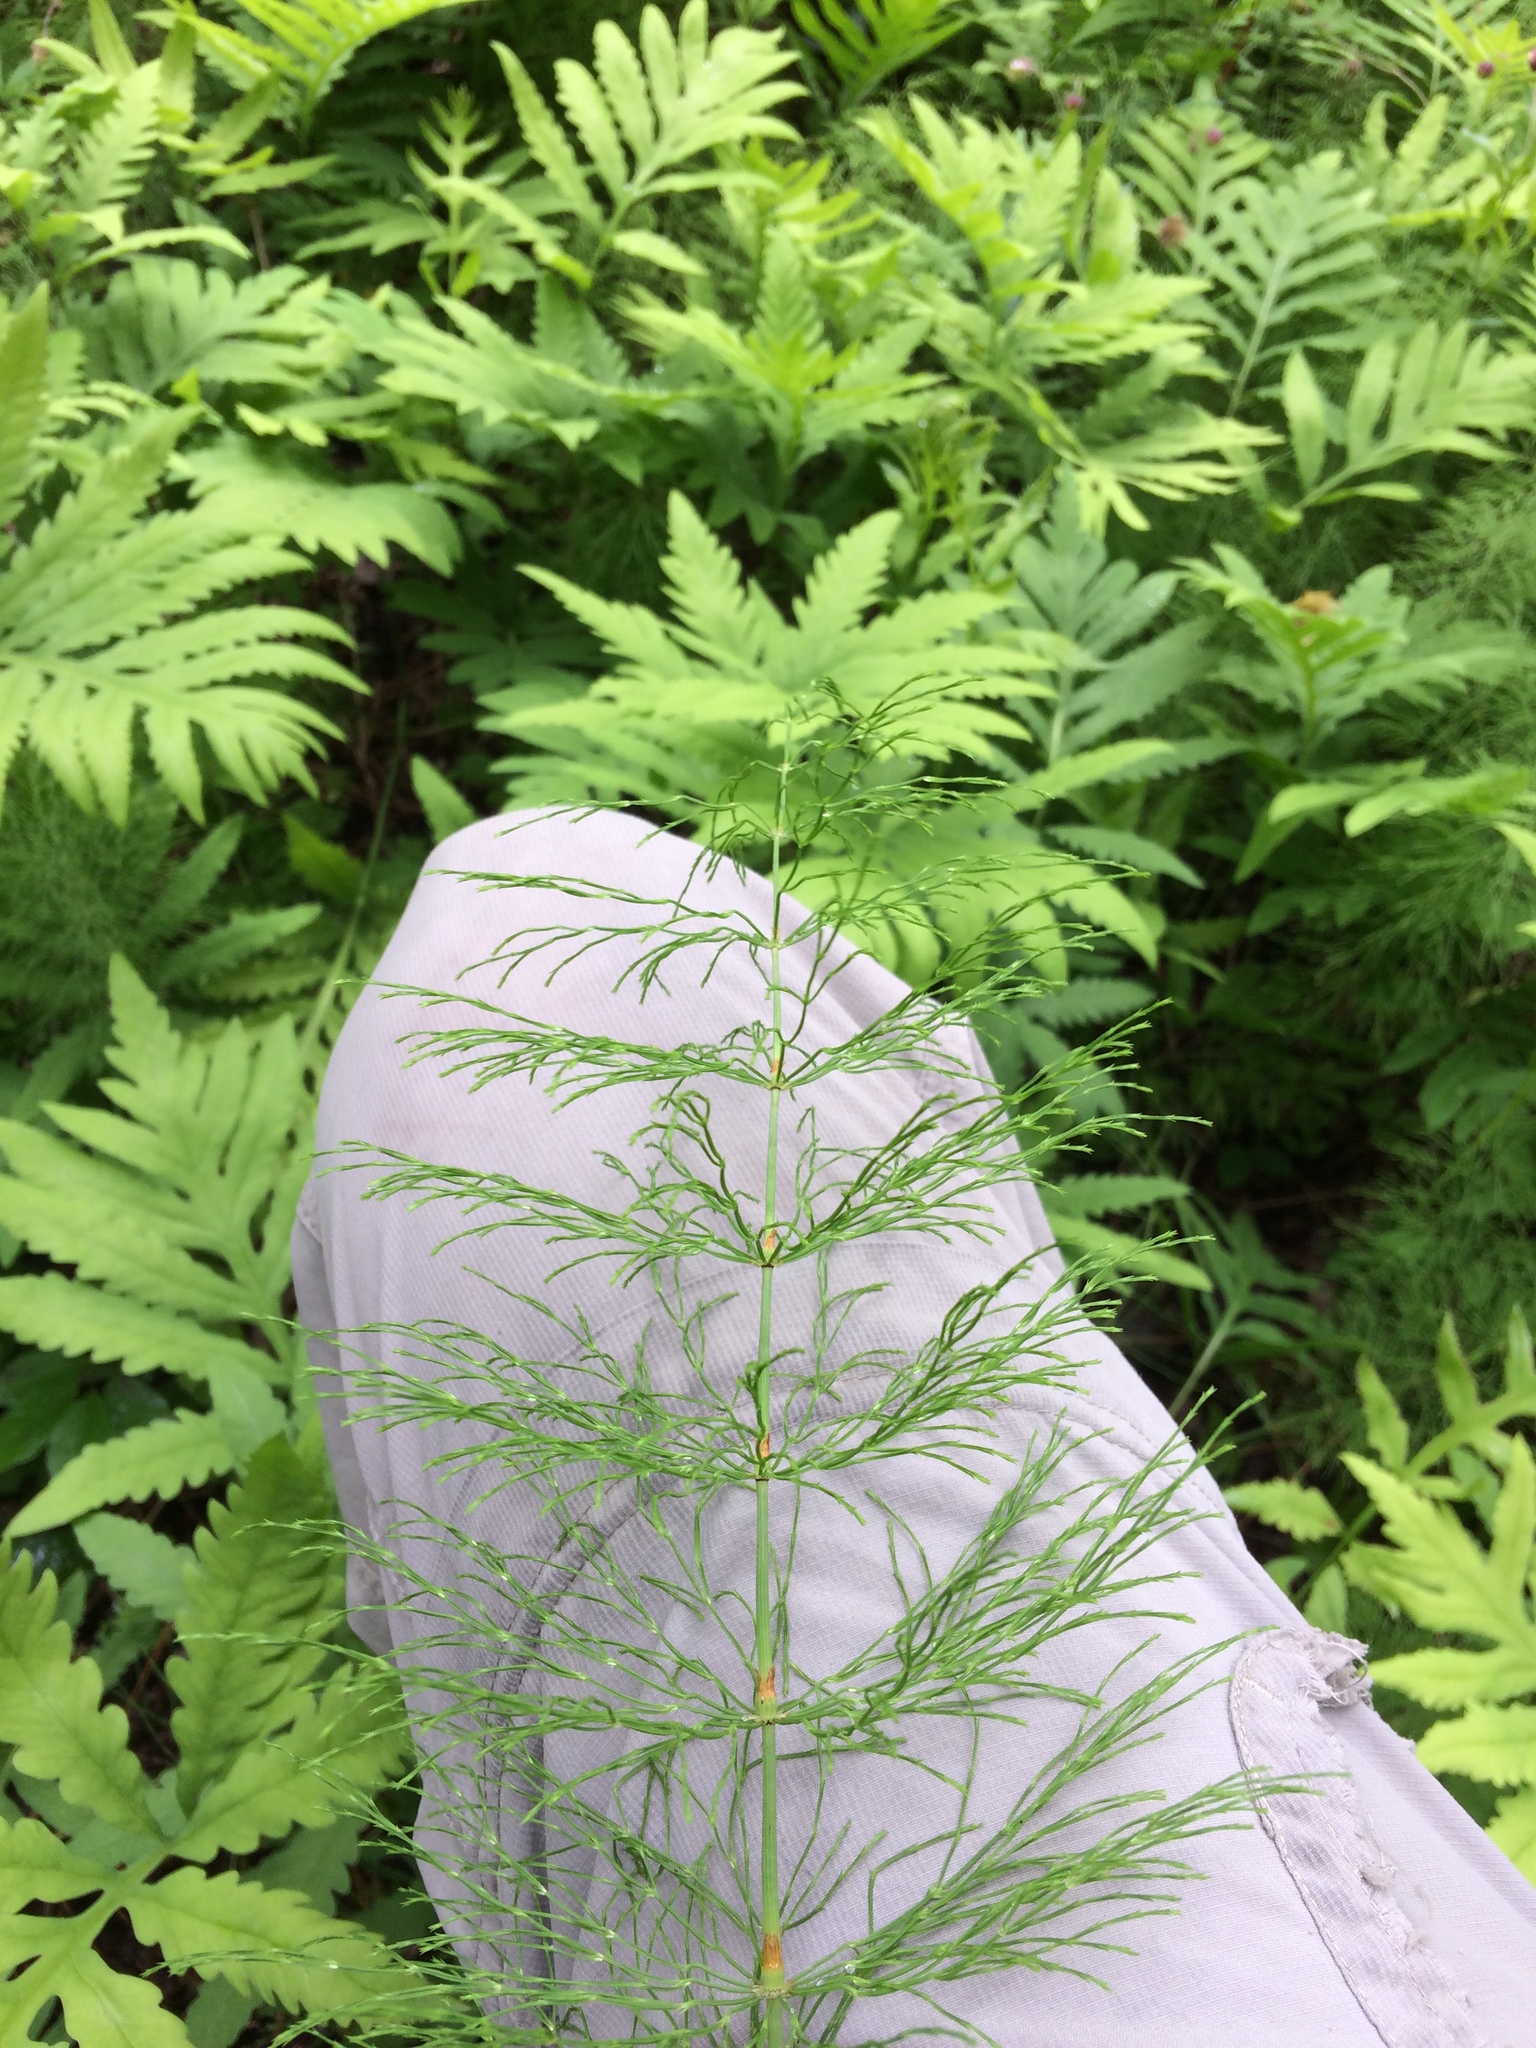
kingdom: Plantae
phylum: Tracheophyta
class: Polypodiopsida
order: Equisetales
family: Equisetaceae
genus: Equisetum
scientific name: Equisetum sylvaticum
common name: Wood horsetail
